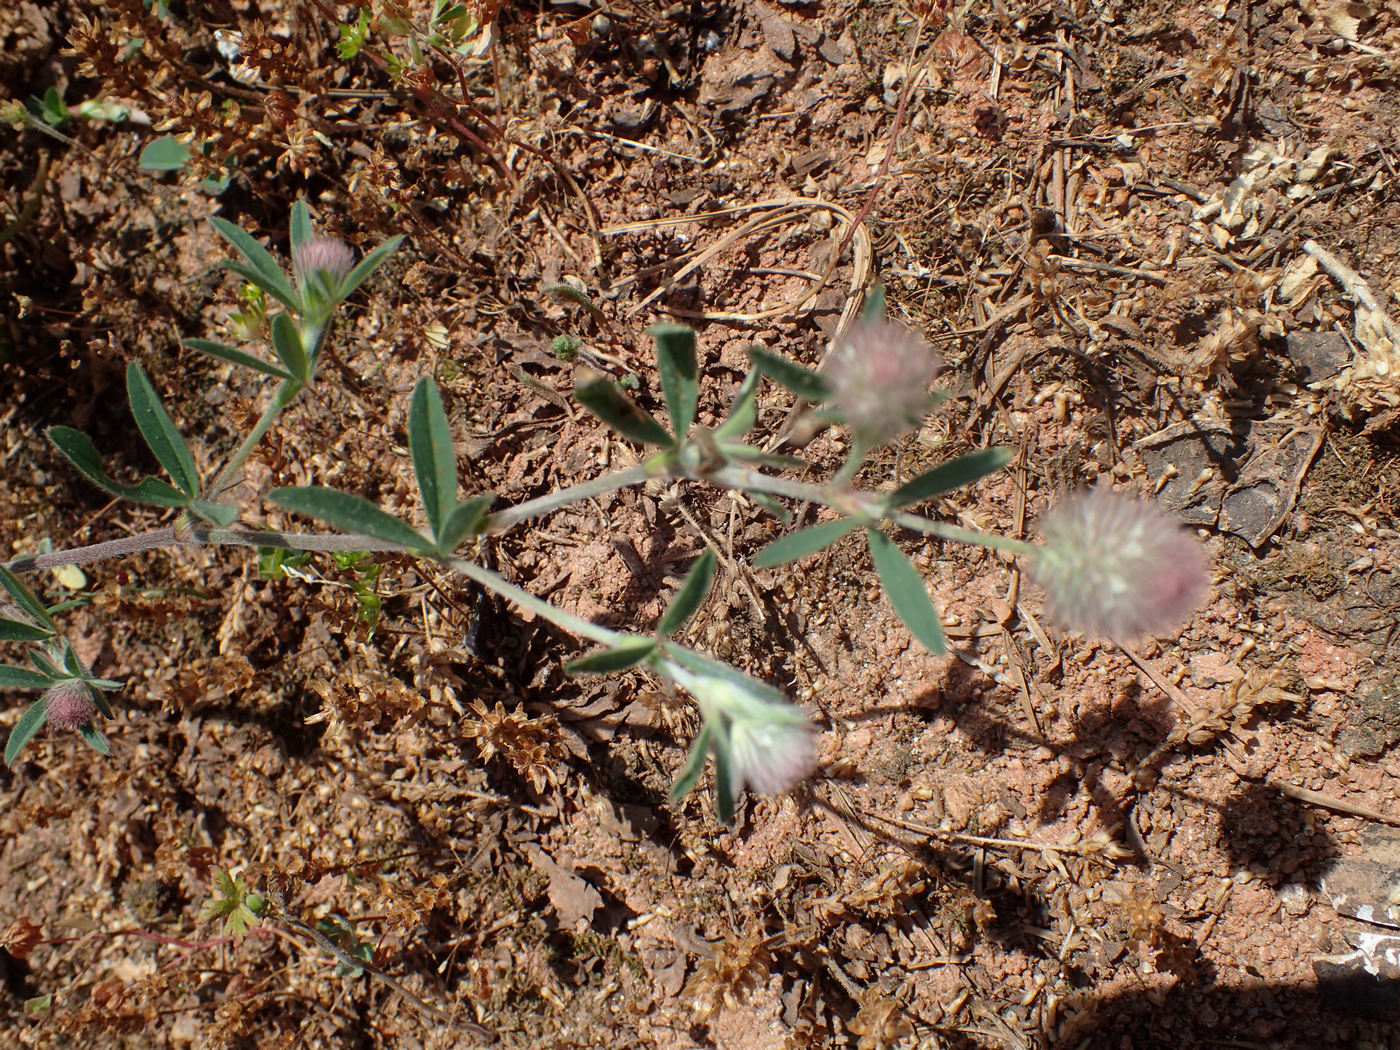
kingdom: Plantae
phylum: Tracheophyta
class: Magnoliopsida
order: Fabales
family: Fabaceae
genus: Trifolium
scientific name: Trifolium arvense
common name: Hare's-foot clover
